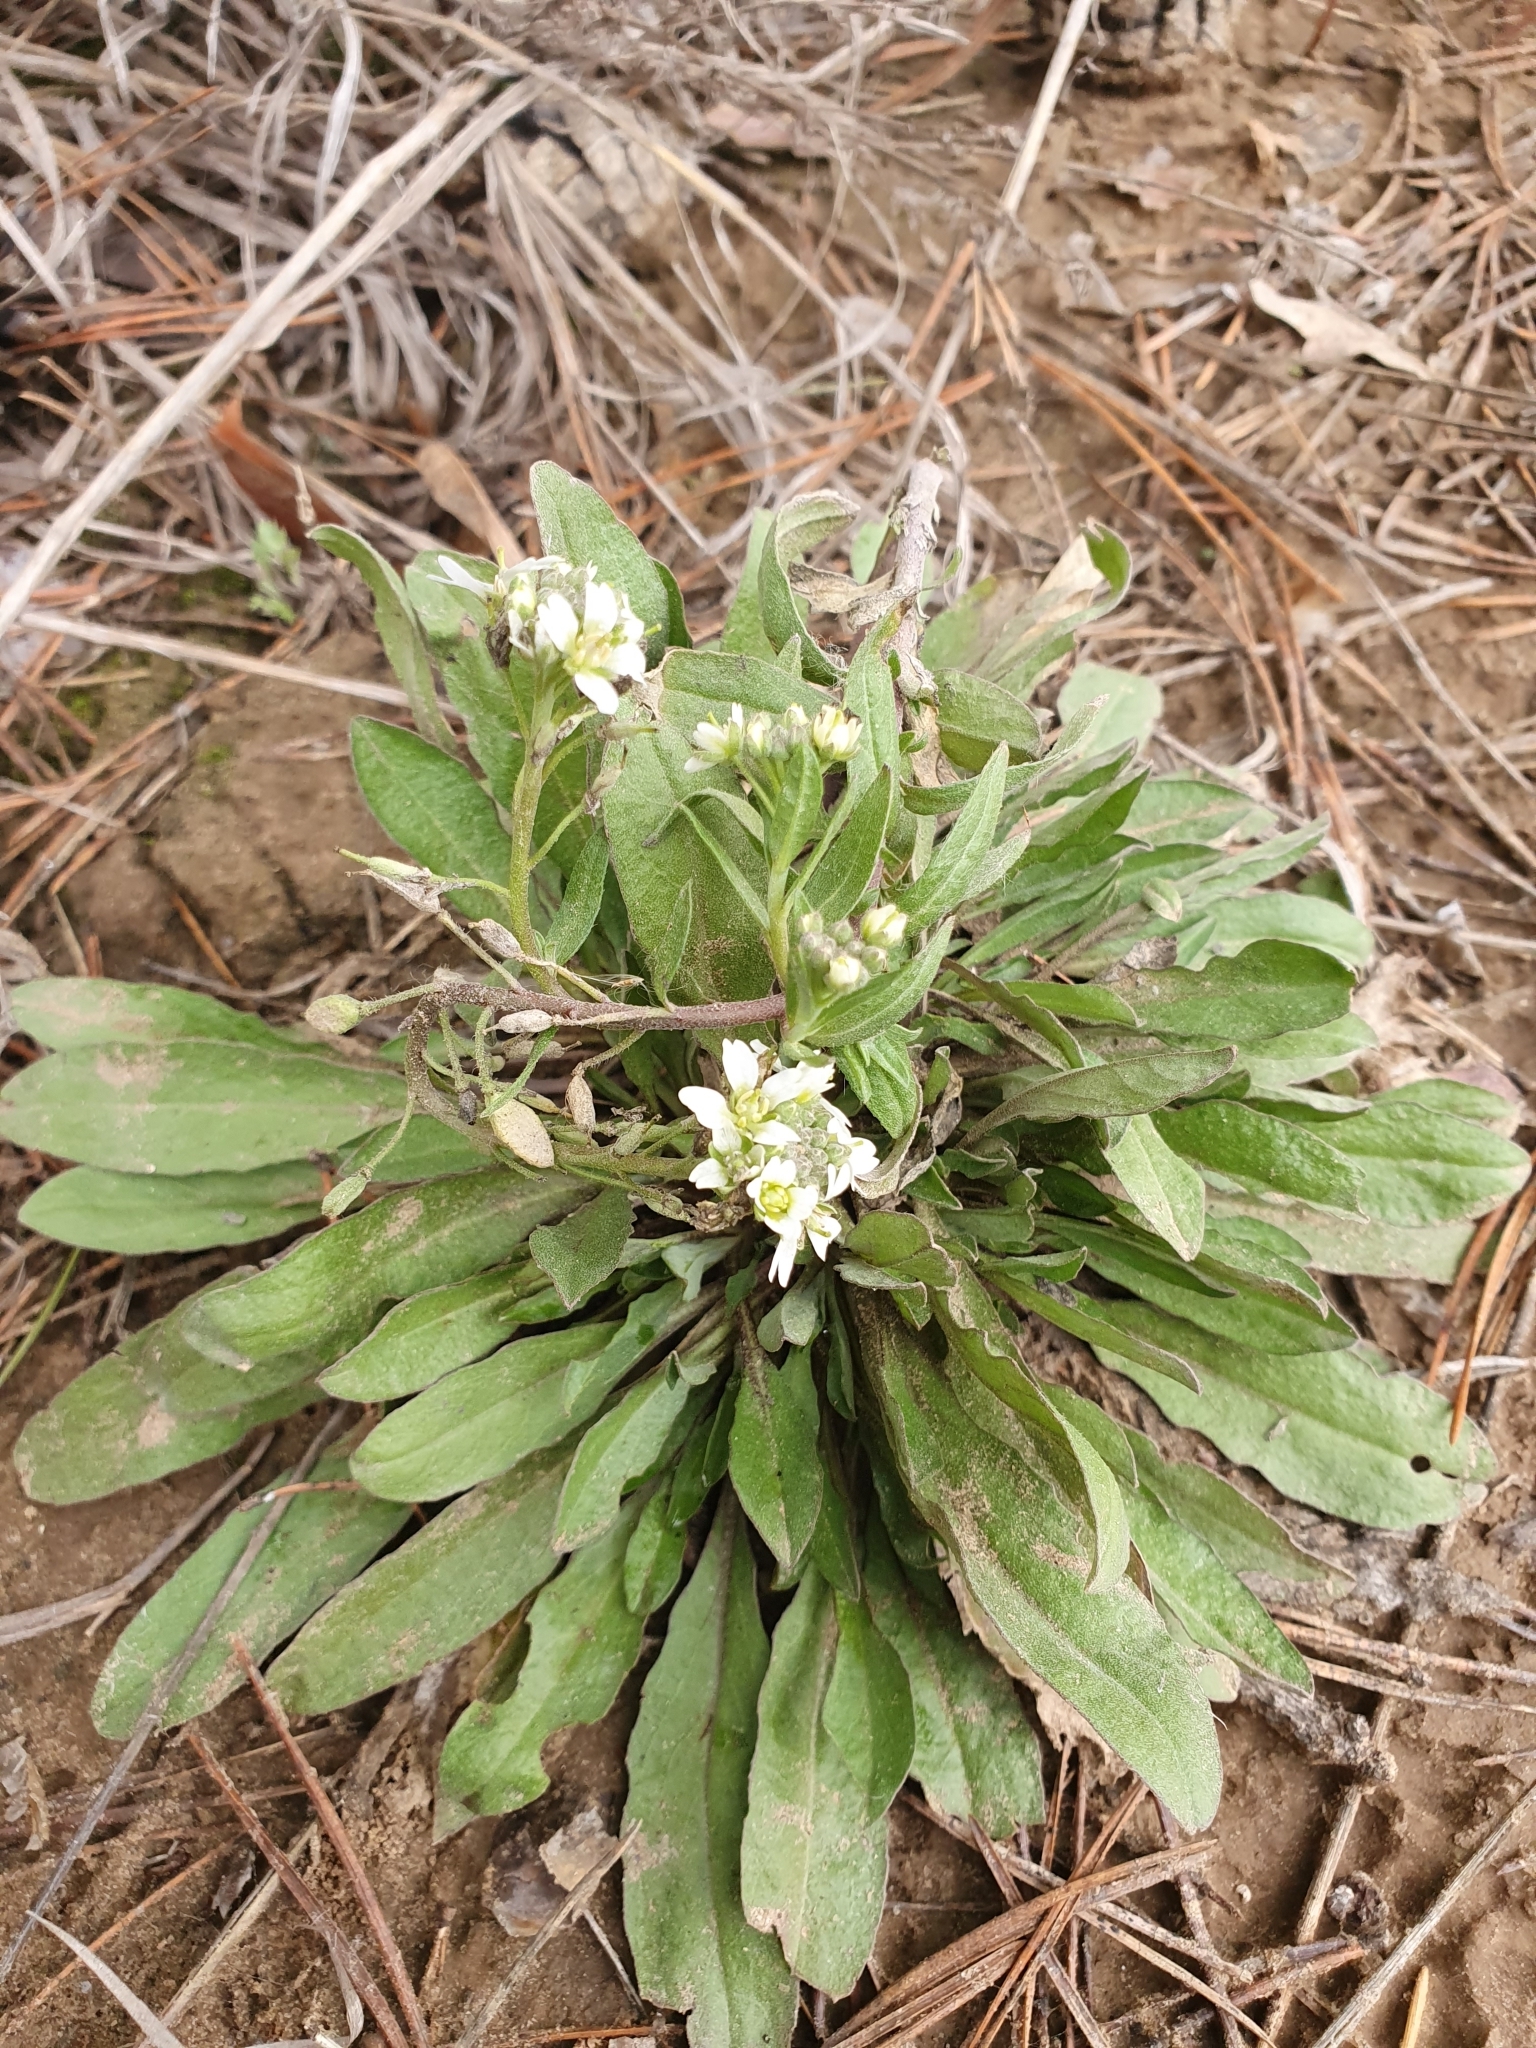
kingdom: Plantae
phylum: Tracheophyta
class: Magnoliopsida
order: Brassicales
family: Brassicaceae
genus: Berteroa
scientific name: Berteroa incana
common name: Hoary alison
